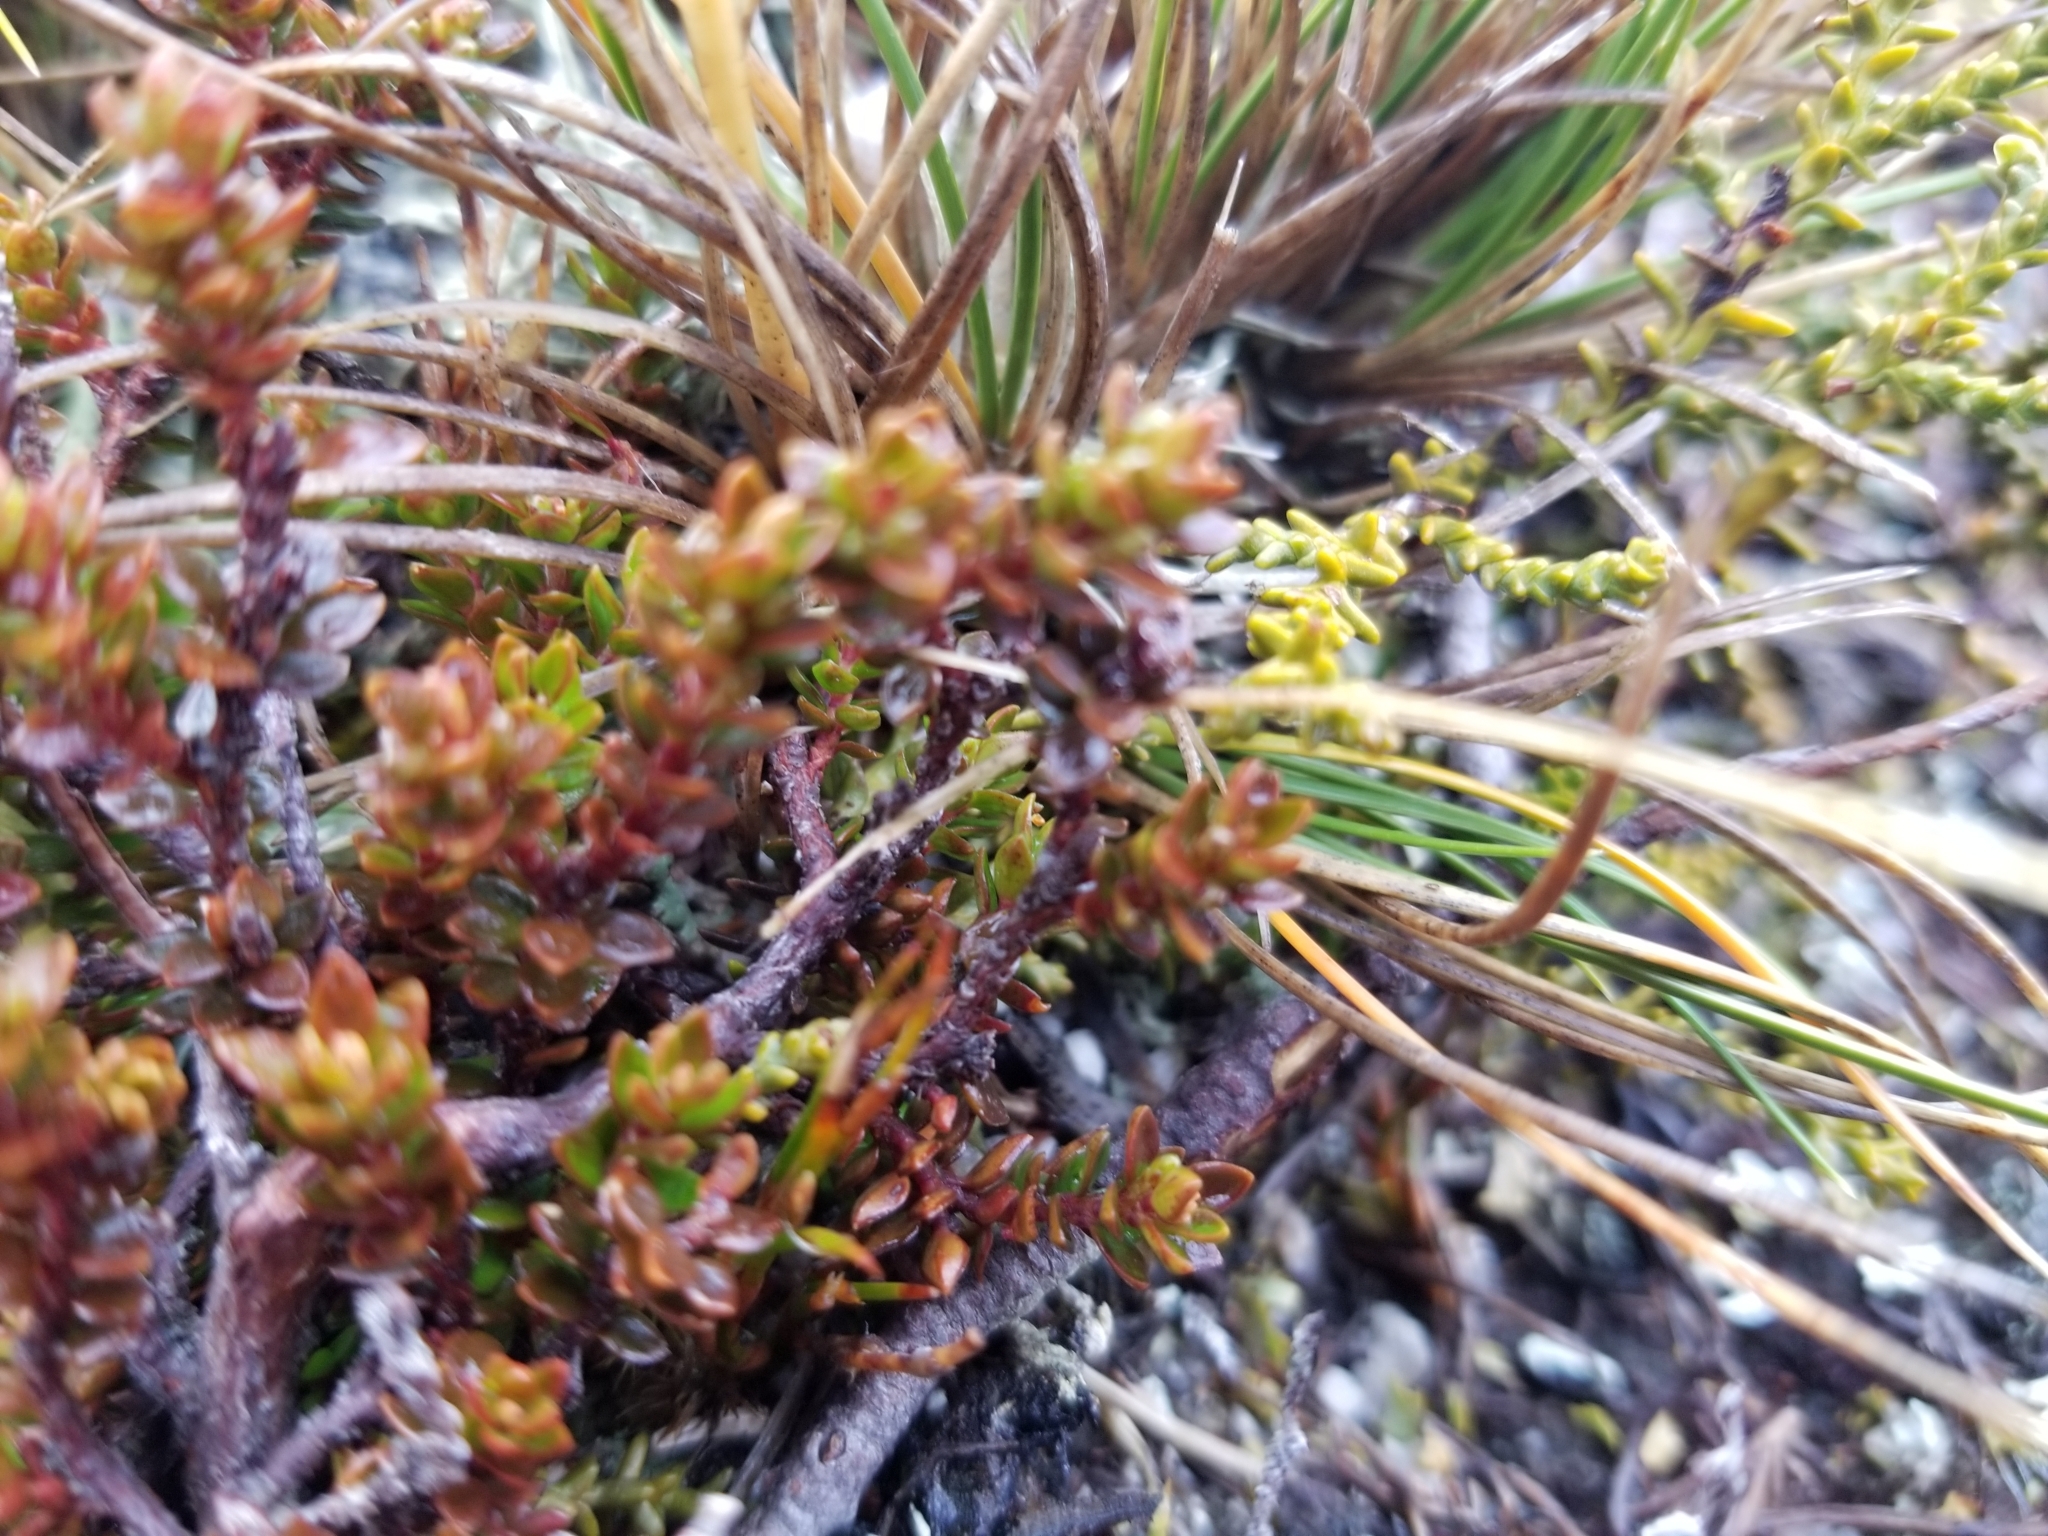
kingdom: Plantae
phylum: Tracheophyta
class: Magnoliopsida
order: Ericales
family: Ericaceae
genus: Epacris
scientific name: Epacris alpina
